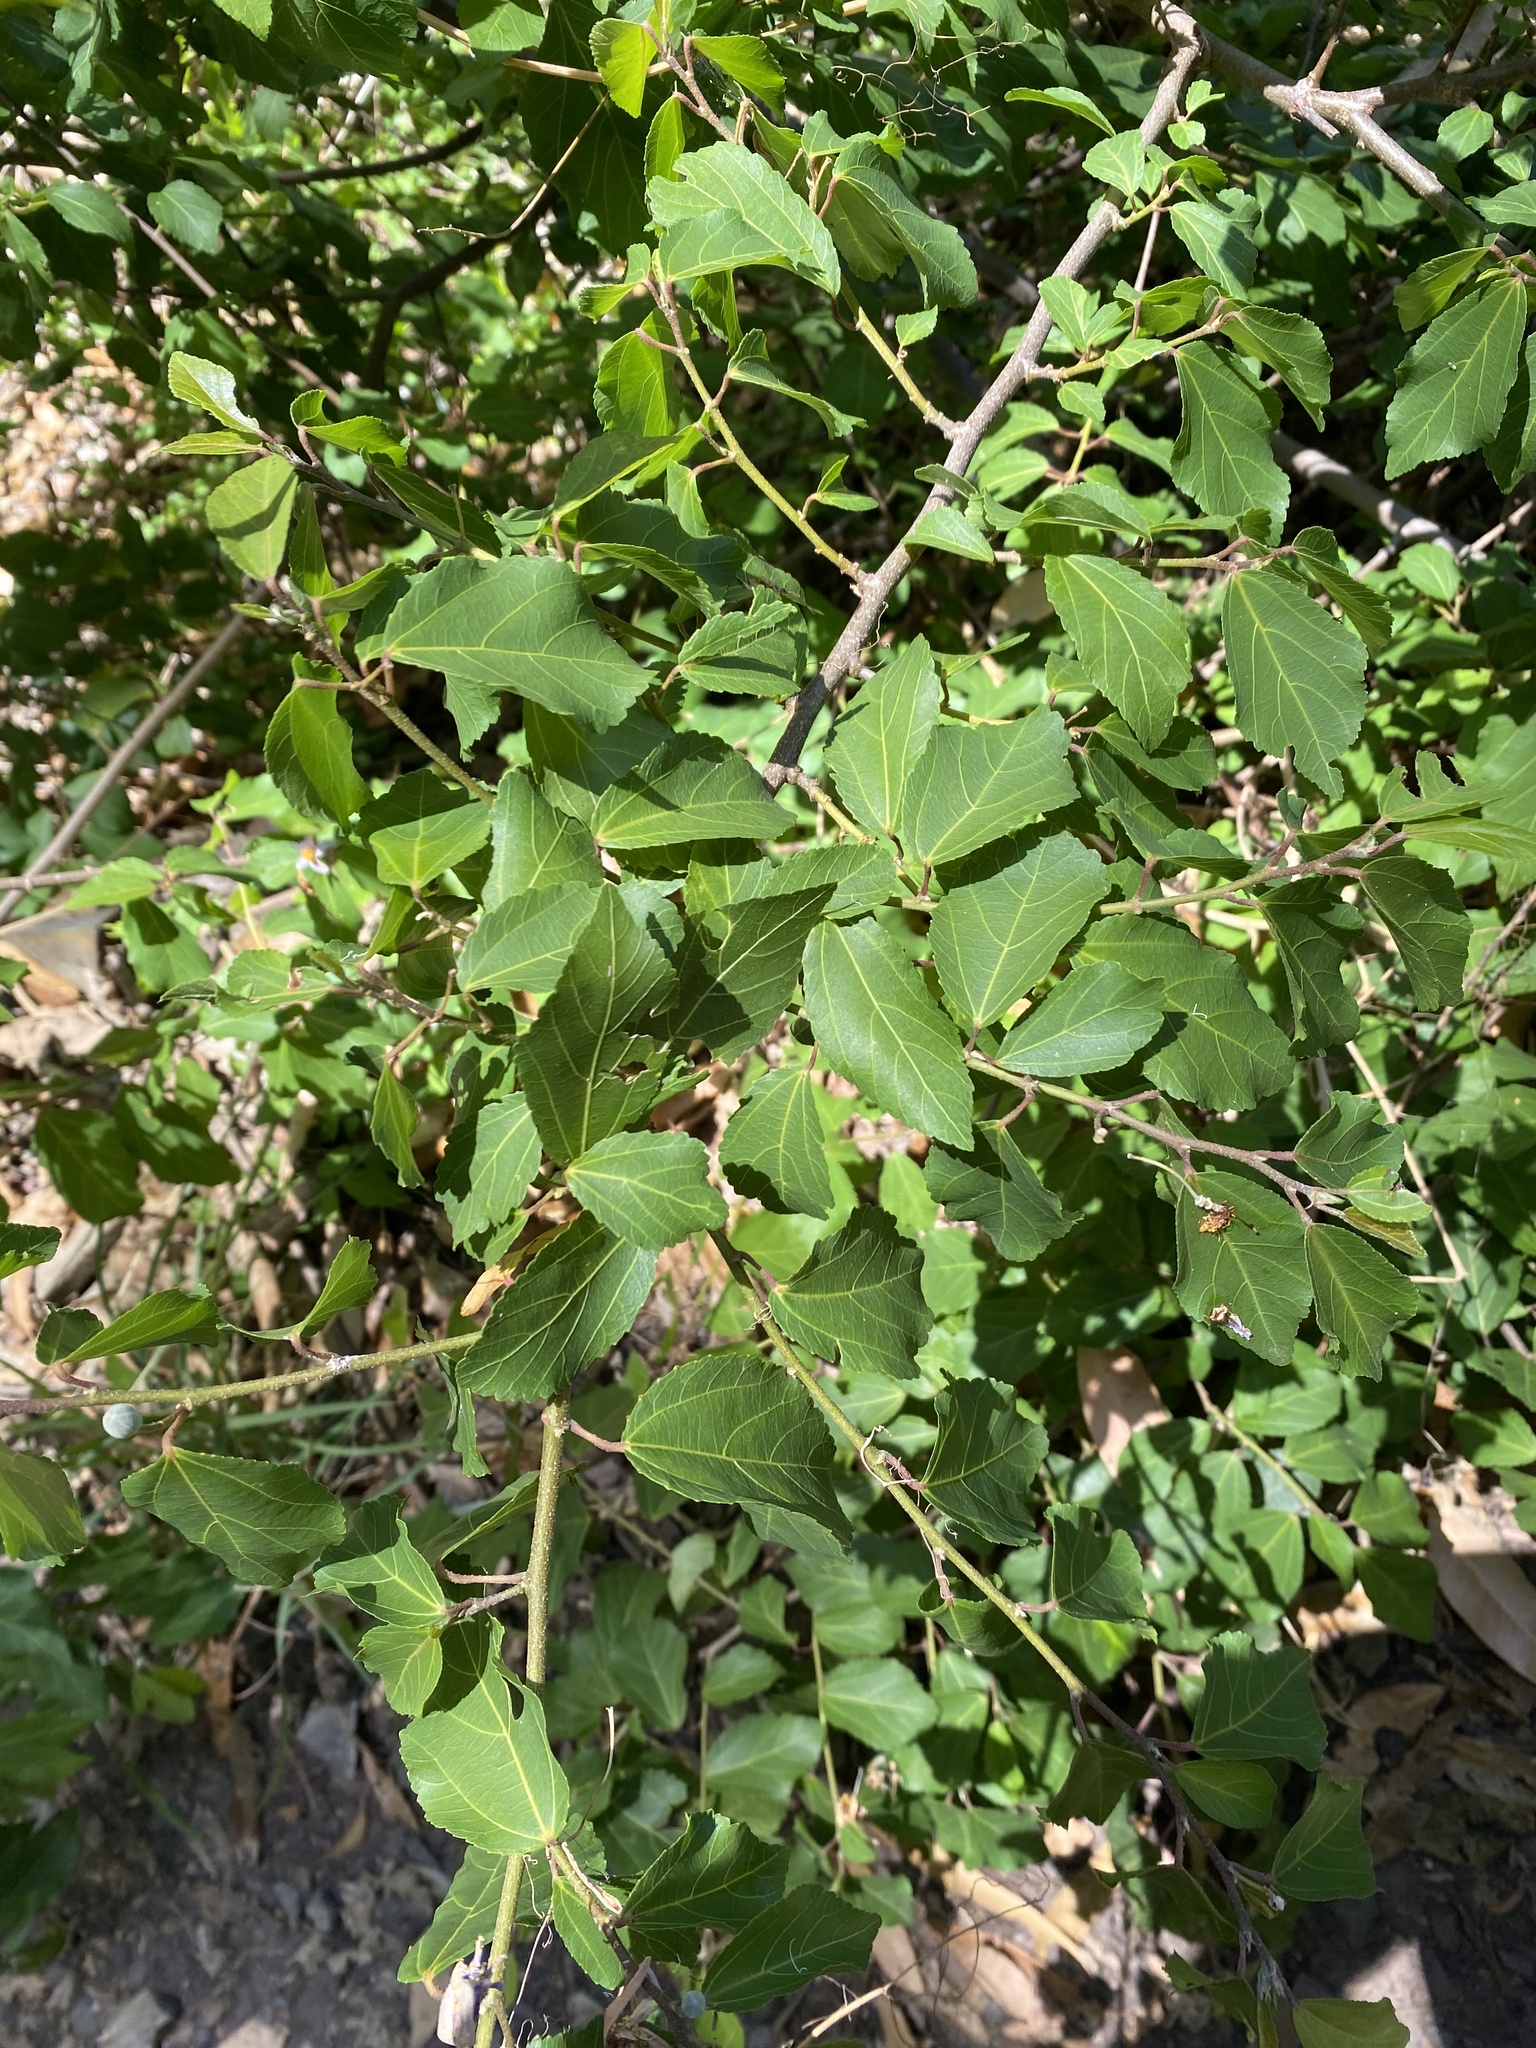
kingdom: Plantae
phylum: Tracheophyta
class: Magnoliopsida
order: Malvales
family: Malvaceae
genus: Grewia
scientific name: Grewia occidentalis
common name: Crossberry
